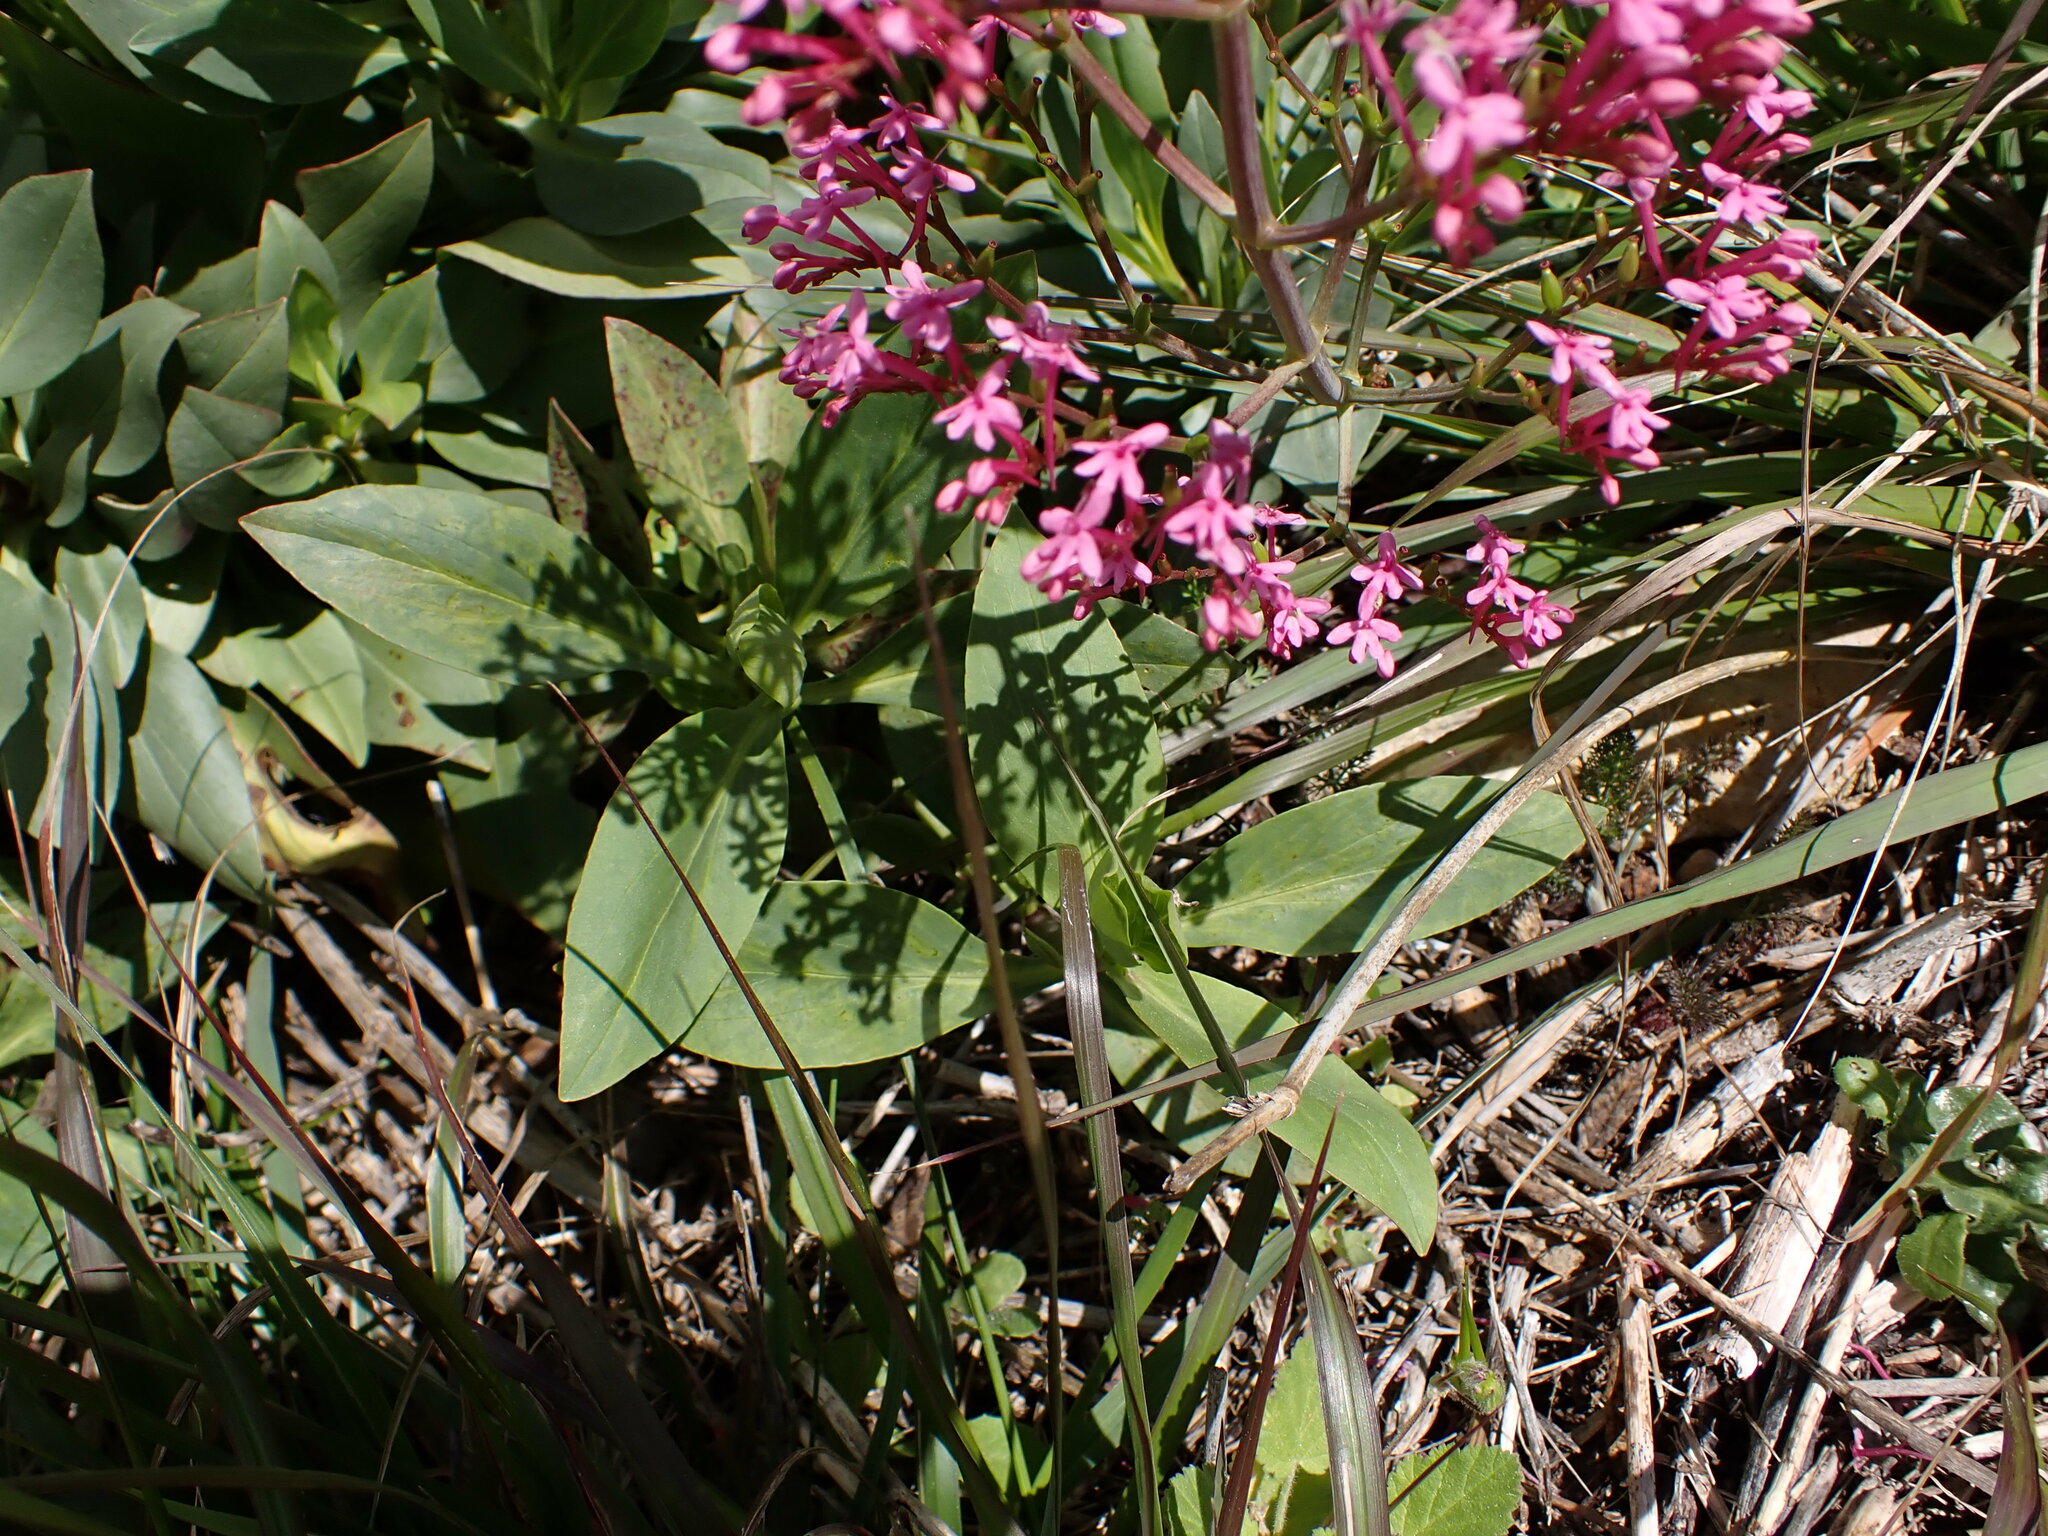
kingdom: Plantae
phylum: Tracheophyta
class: Magnoliopsida
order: Dipsacales
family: Caprifoliaceae
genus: Centranthus
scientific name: Centranthus ruber
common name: Red valerian
